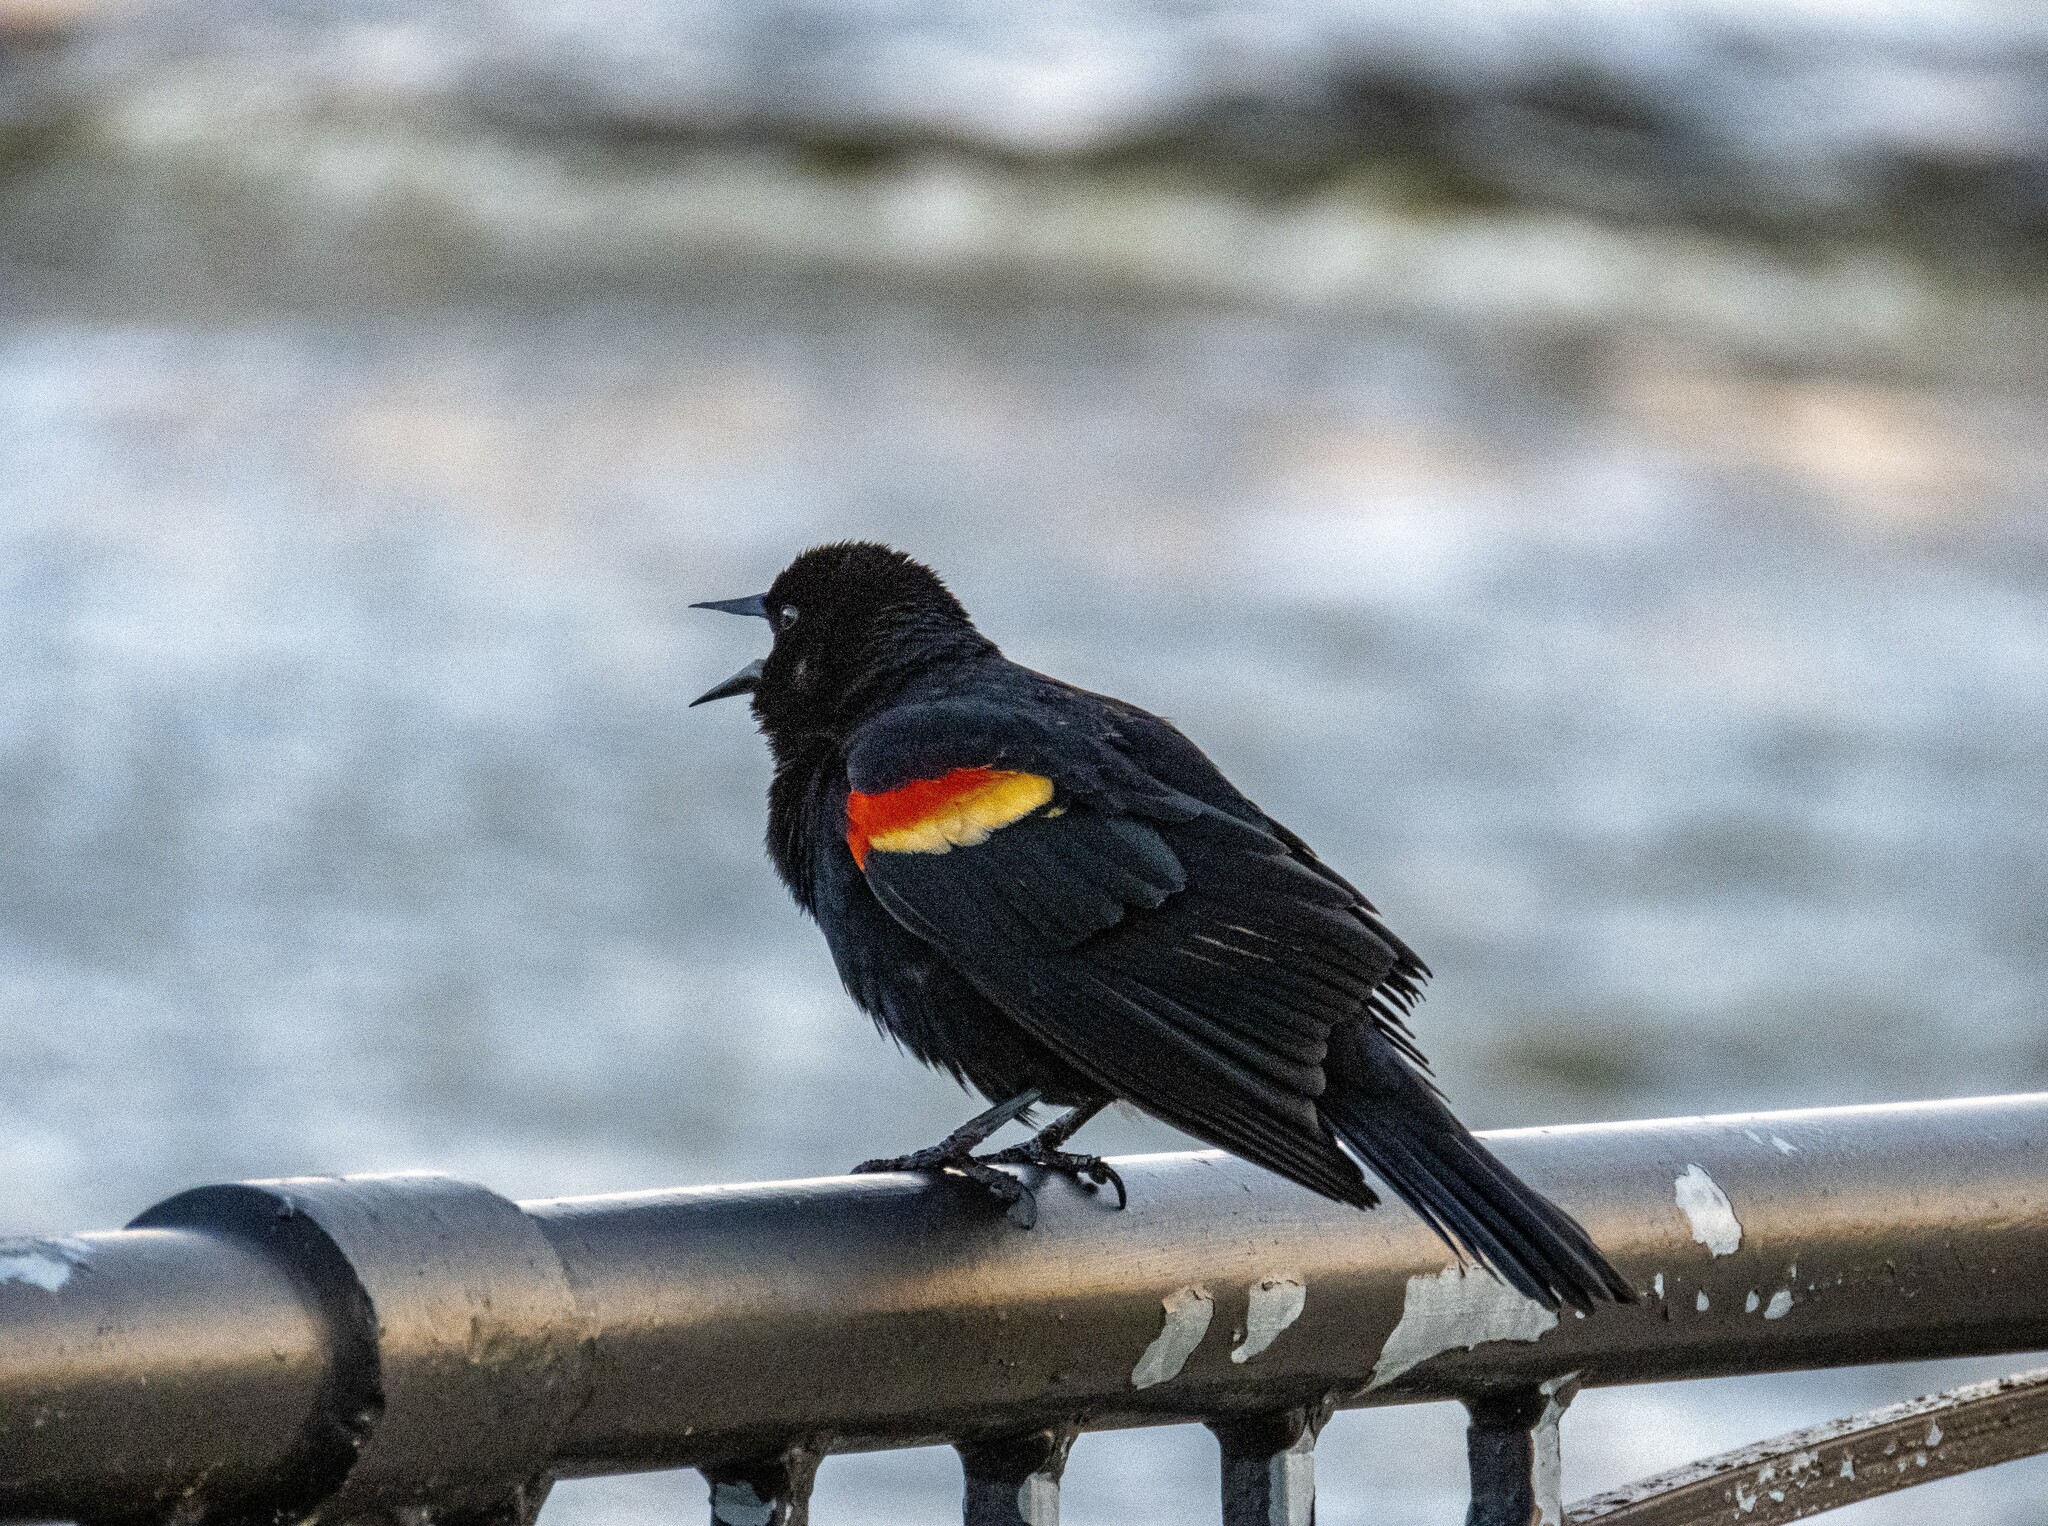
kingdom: Animalia
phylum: Chordata
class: Aves
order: Passeriformes
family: Icteridae
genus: Agelaius
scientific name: Agelaius phoeniceus
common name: Red-winged blackbird
